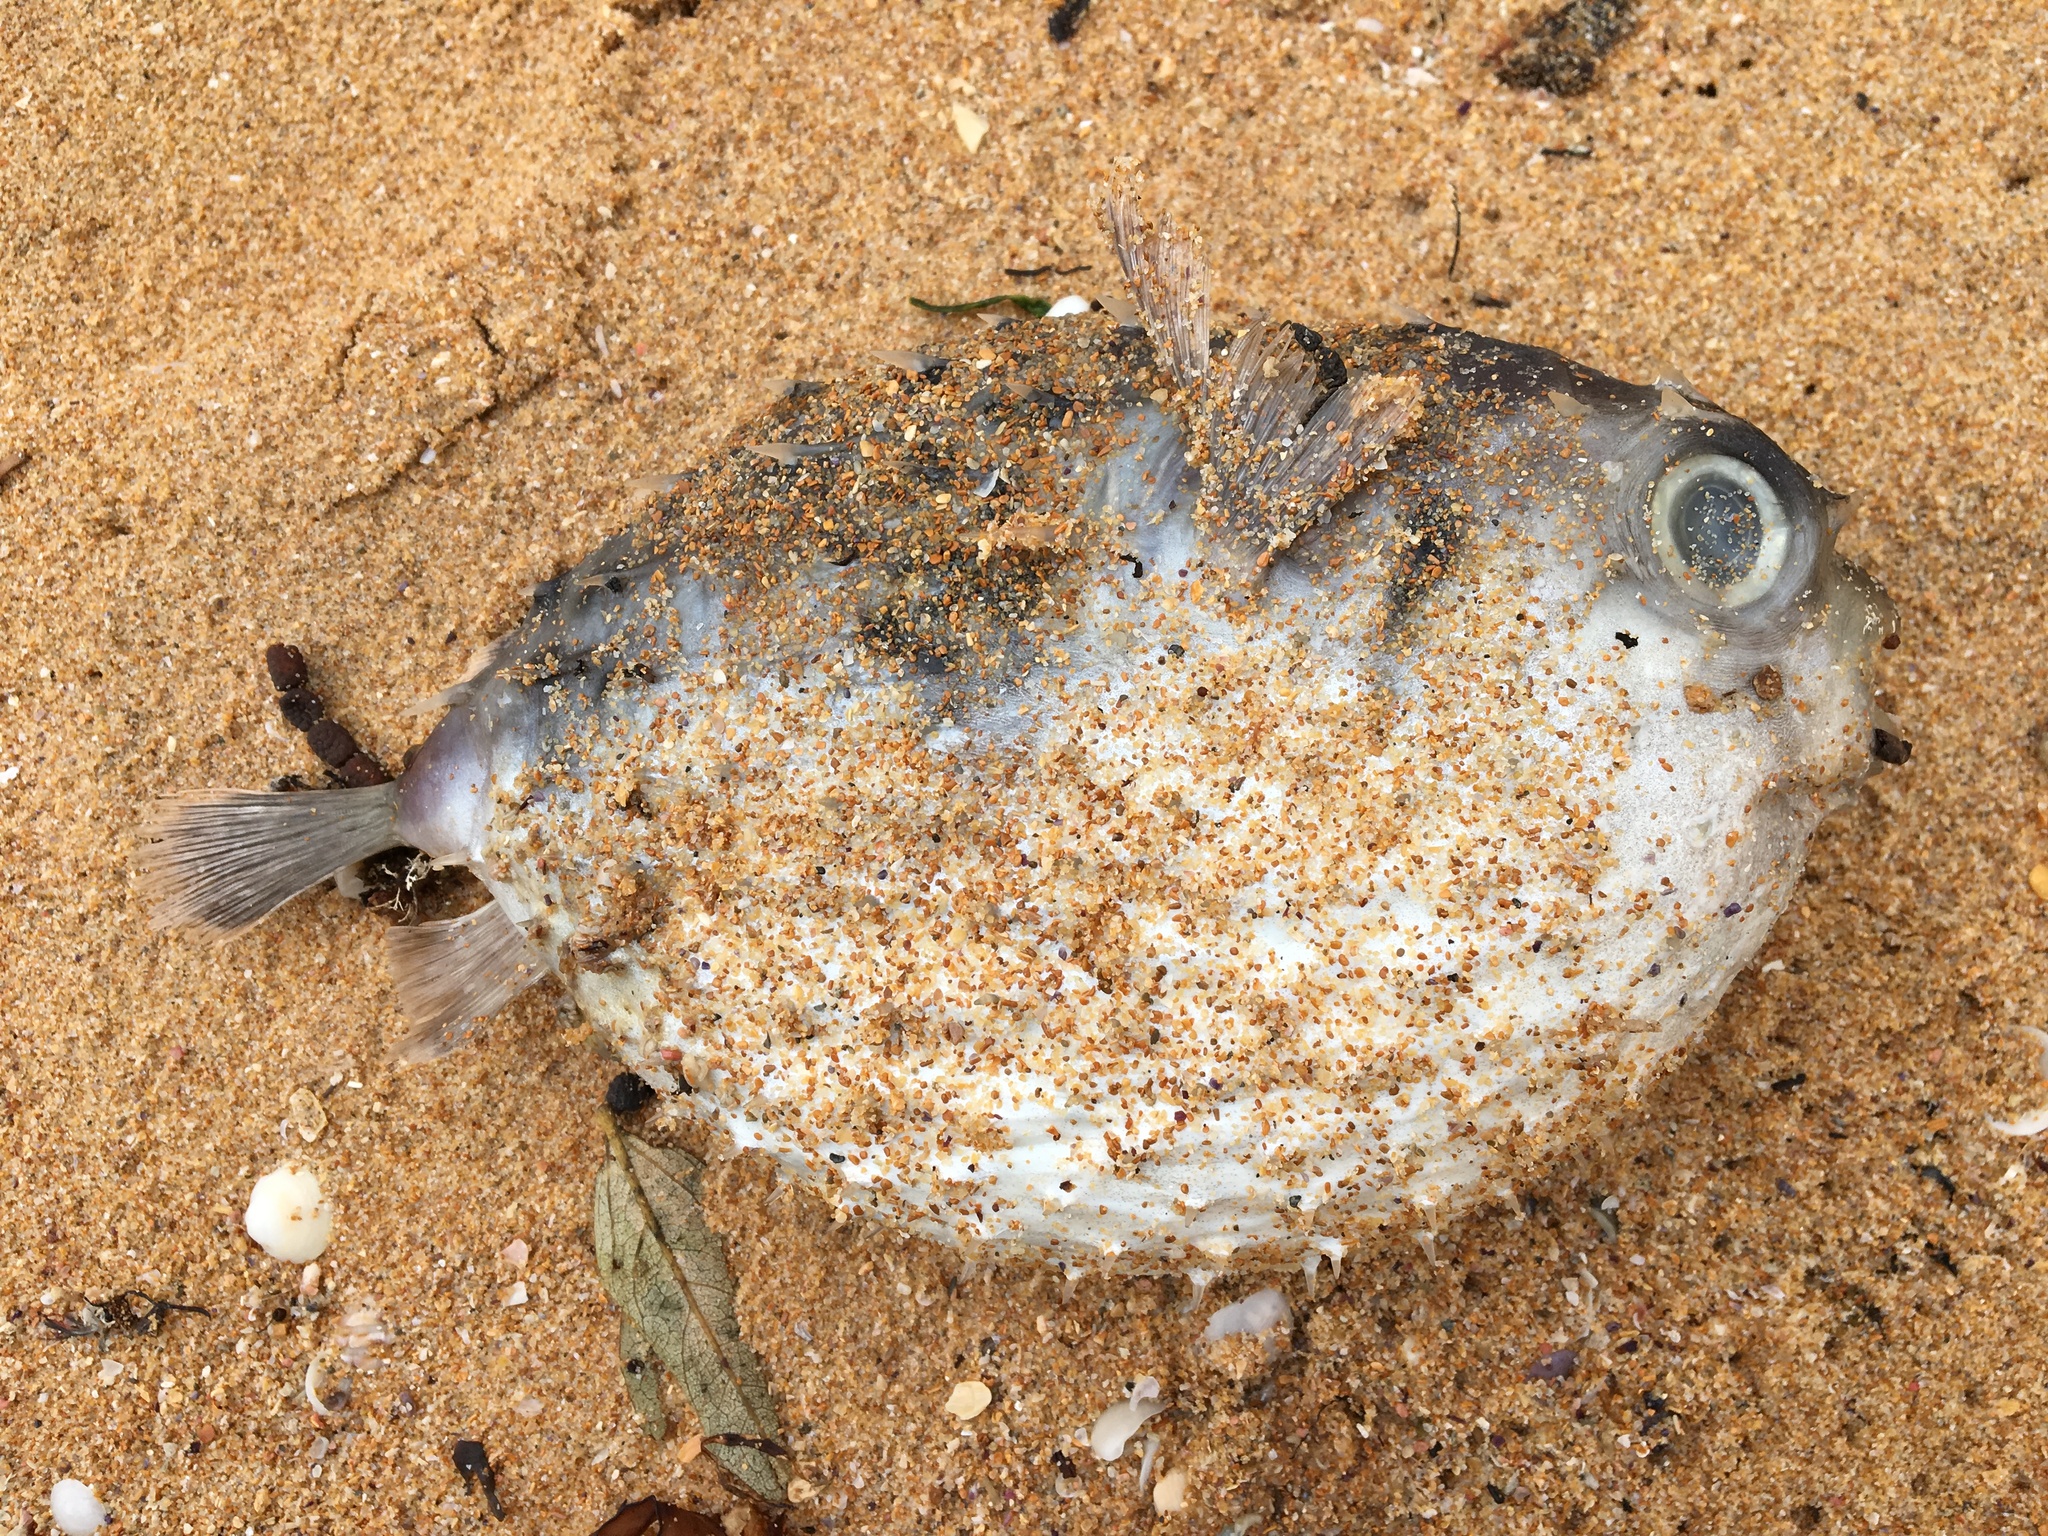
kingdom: Animalia
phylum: Chordata
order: Tetraodontiformes
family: Diodontidae
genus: Allomycterus
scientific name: Allomycterus pilatus
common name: No common name
